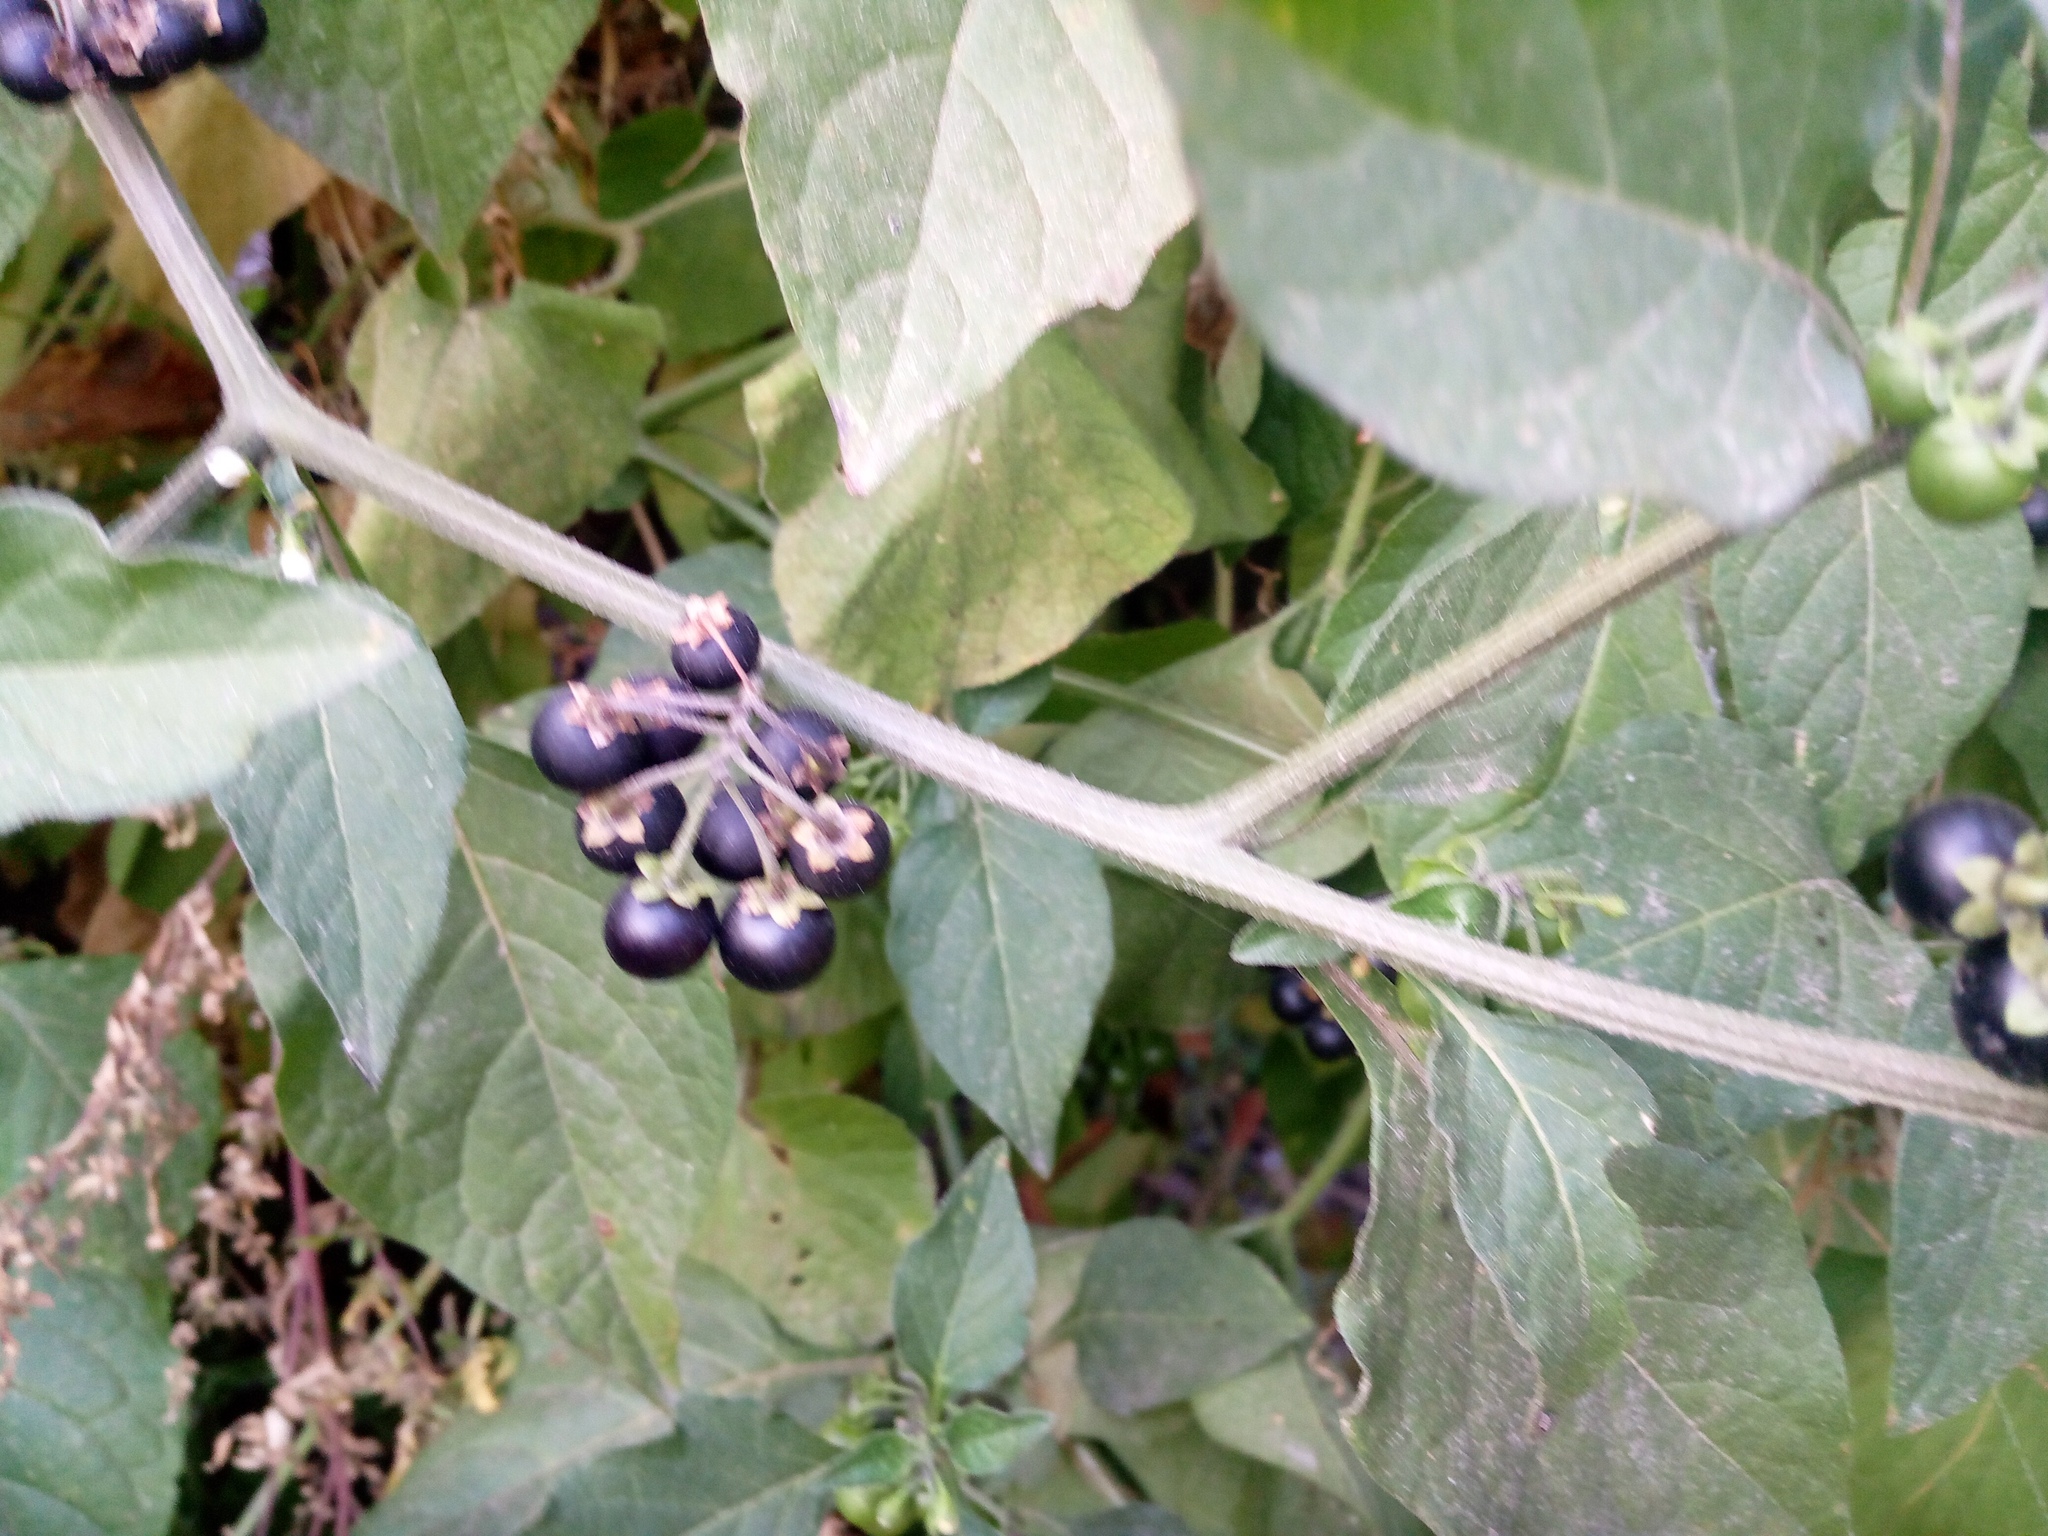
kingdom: Plantae
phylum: Tracheophyta
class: Magnoliopsida
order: Solanales
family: Solanaceae
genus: Solanum
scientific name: Solanum nigrum
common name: Black nightshade
